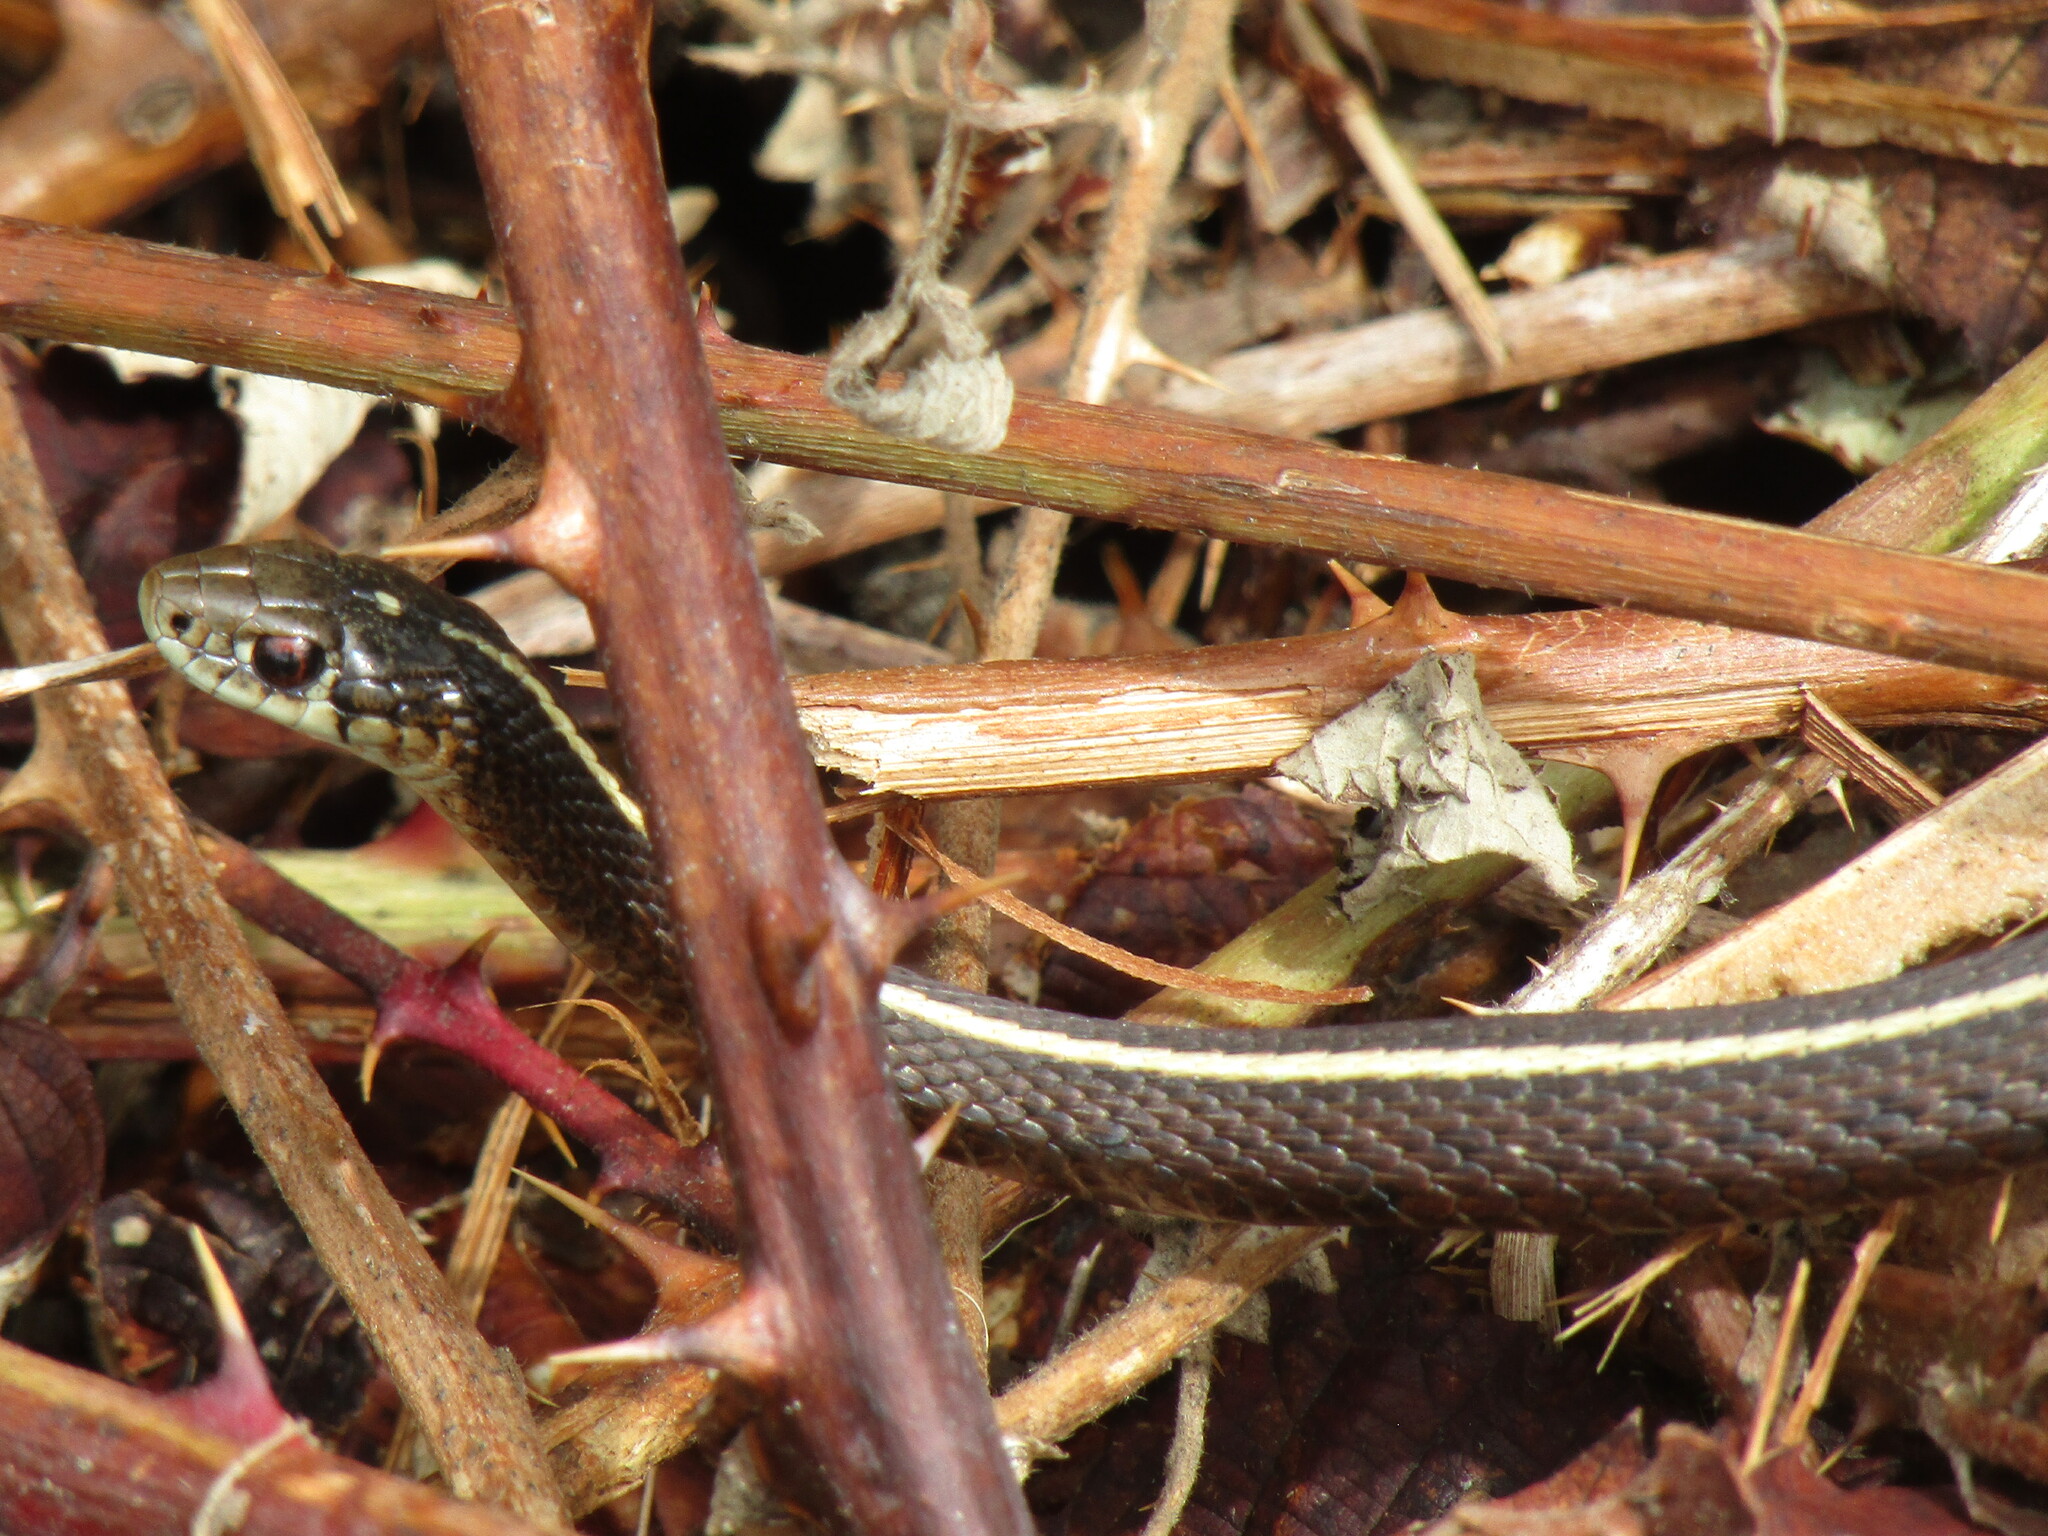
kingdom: Animalia
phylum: Chordata
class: Squamata
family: Colubridae
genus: Thamnophis
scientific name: Thamnophis ordinoides
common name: Northwestern garter snake
